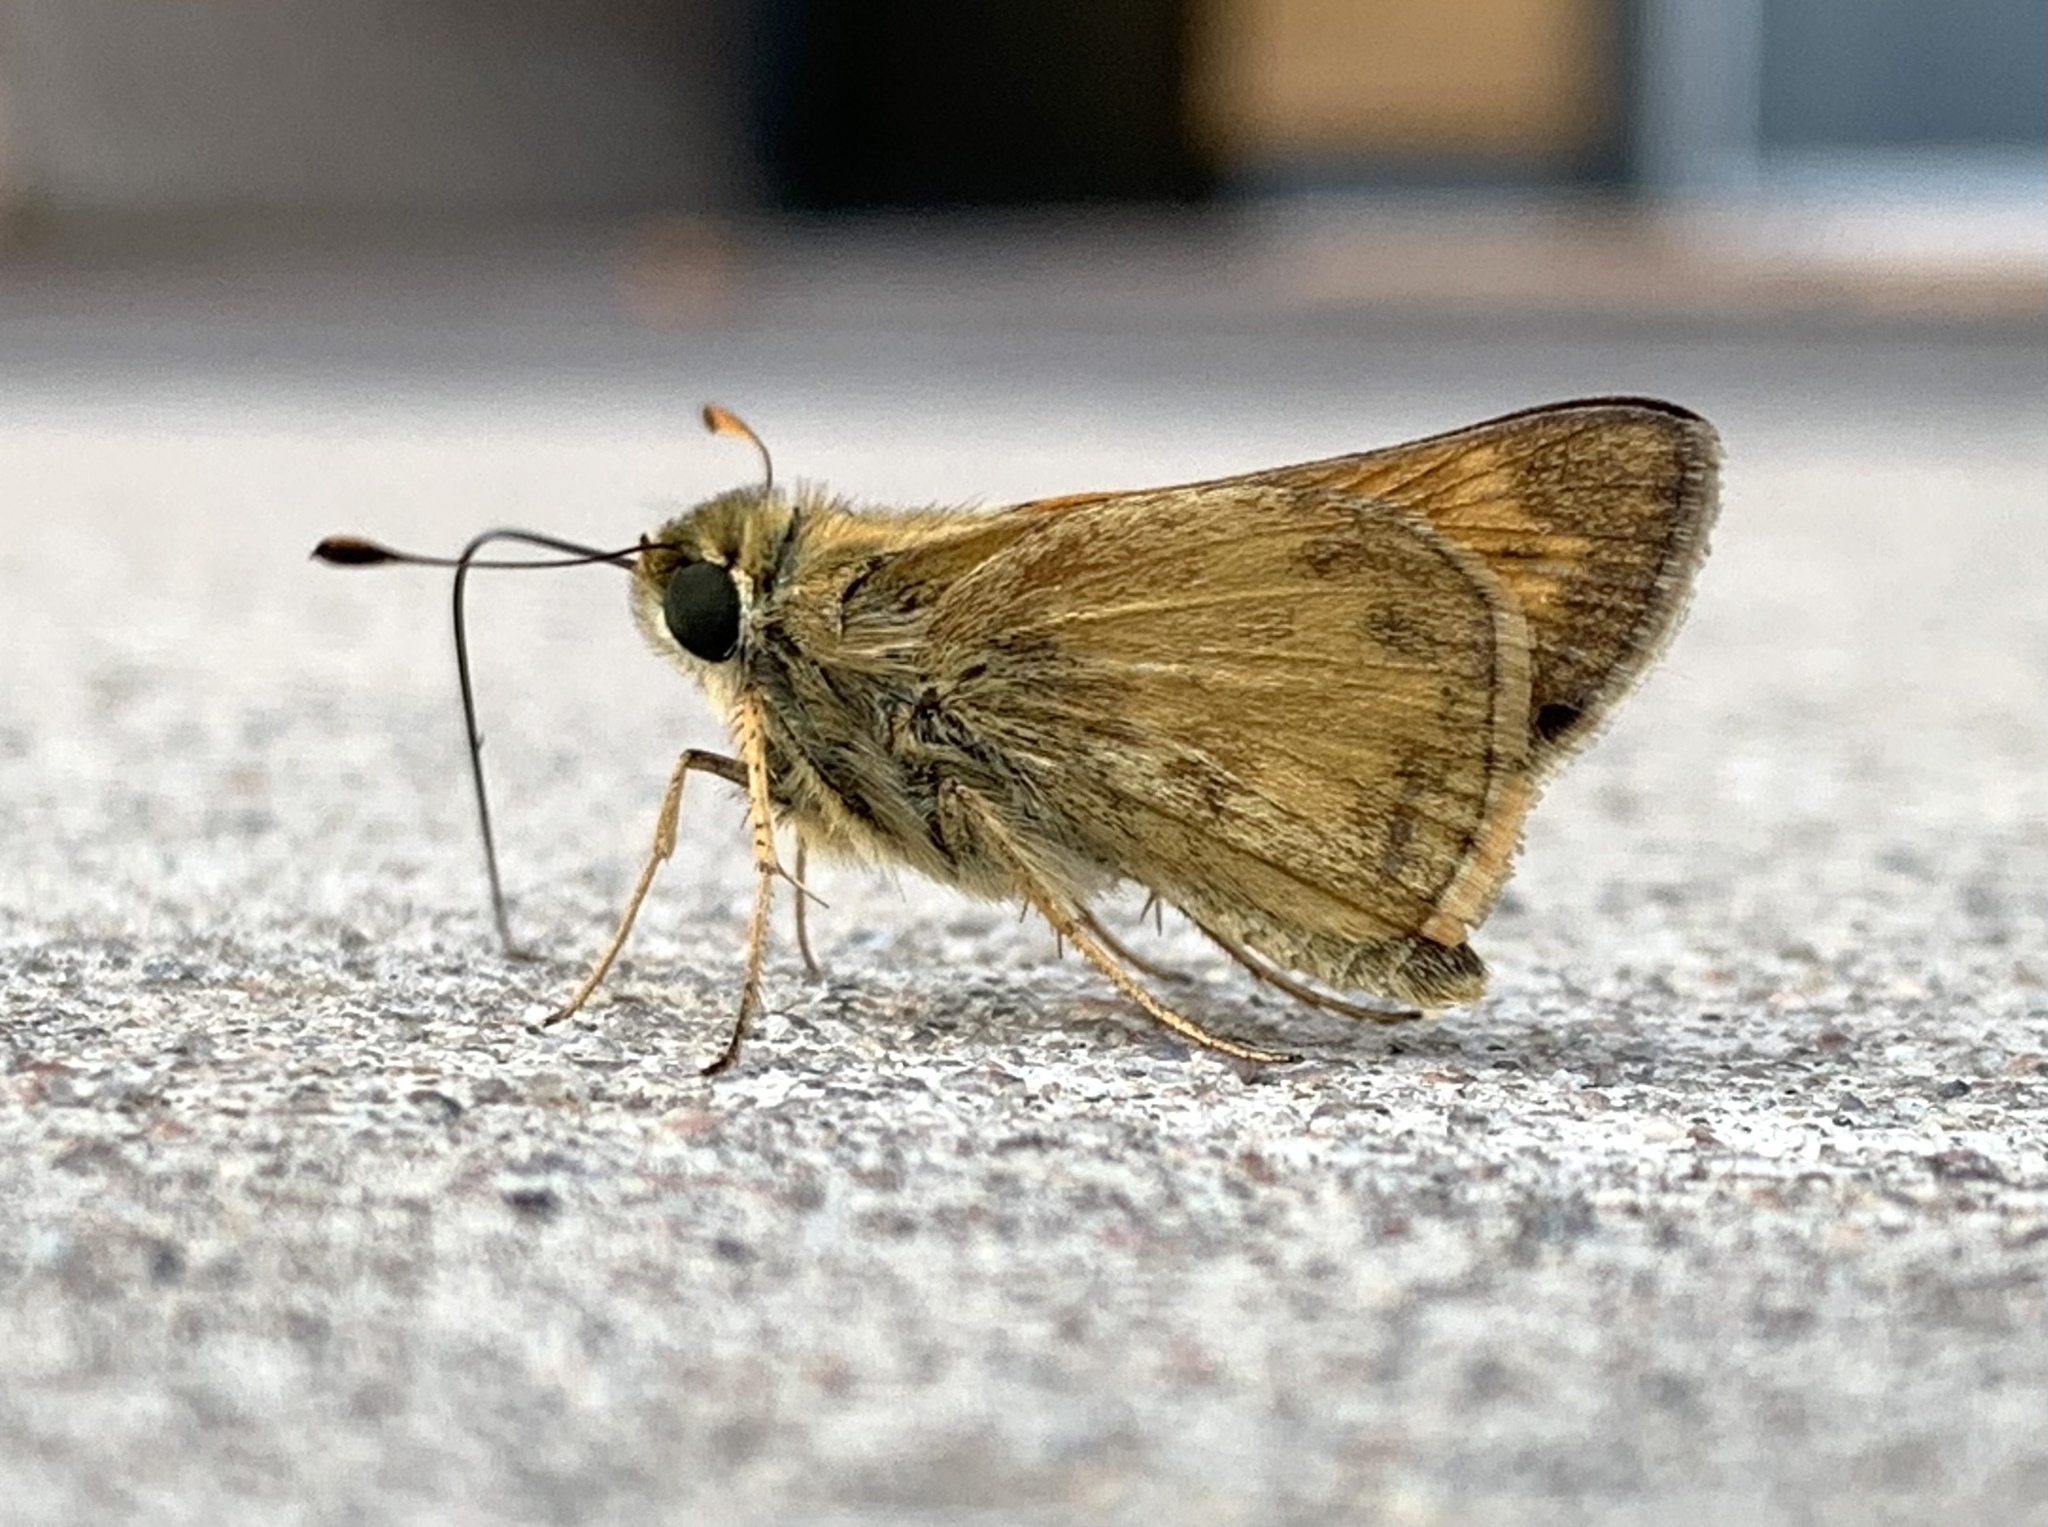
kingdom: Animalia
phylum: Arthropoda
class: Insecta
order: Lepidoptera
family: Hesperiidae
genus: Atalopedes
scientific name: Atalopedes
